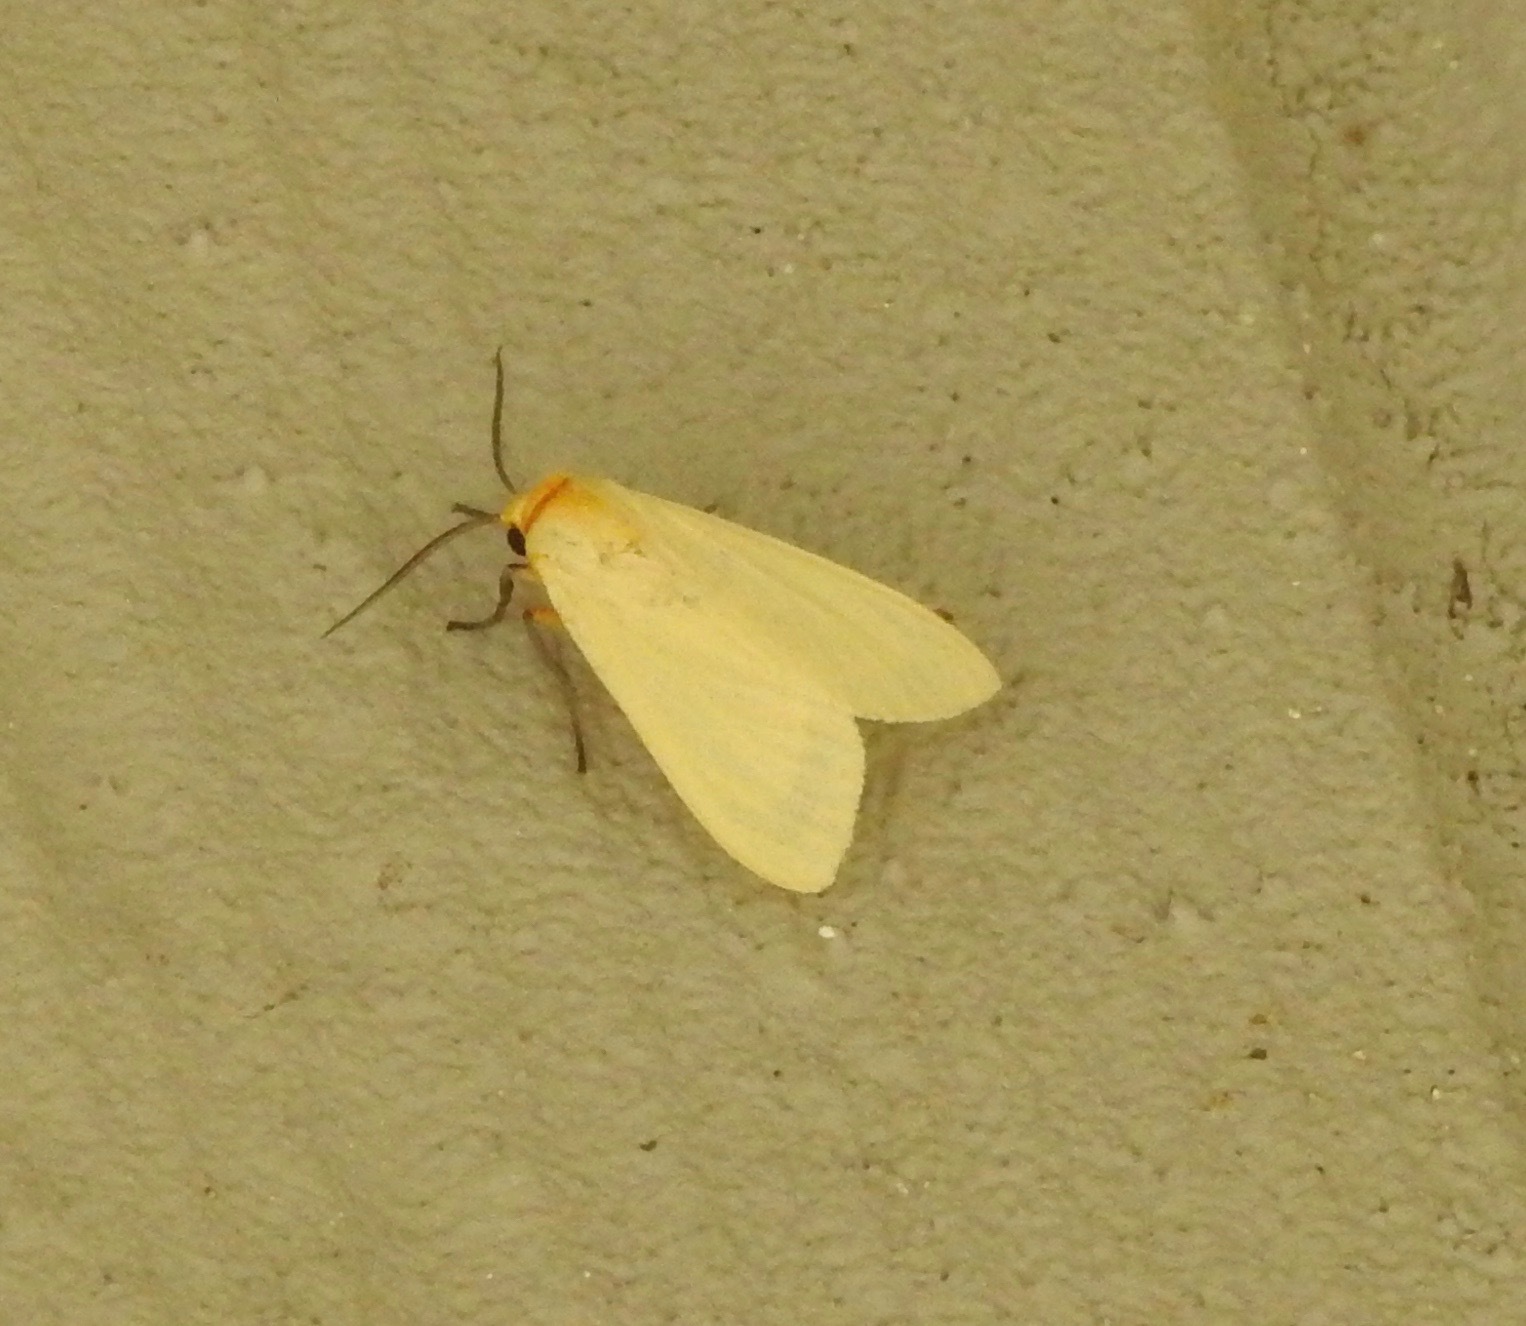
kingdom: Animalia
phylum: Arthropoda
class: Insecta
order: Lepidoptera
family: Erebidae
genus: Pareuchaetes
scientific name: Pareuchaetes insulata
